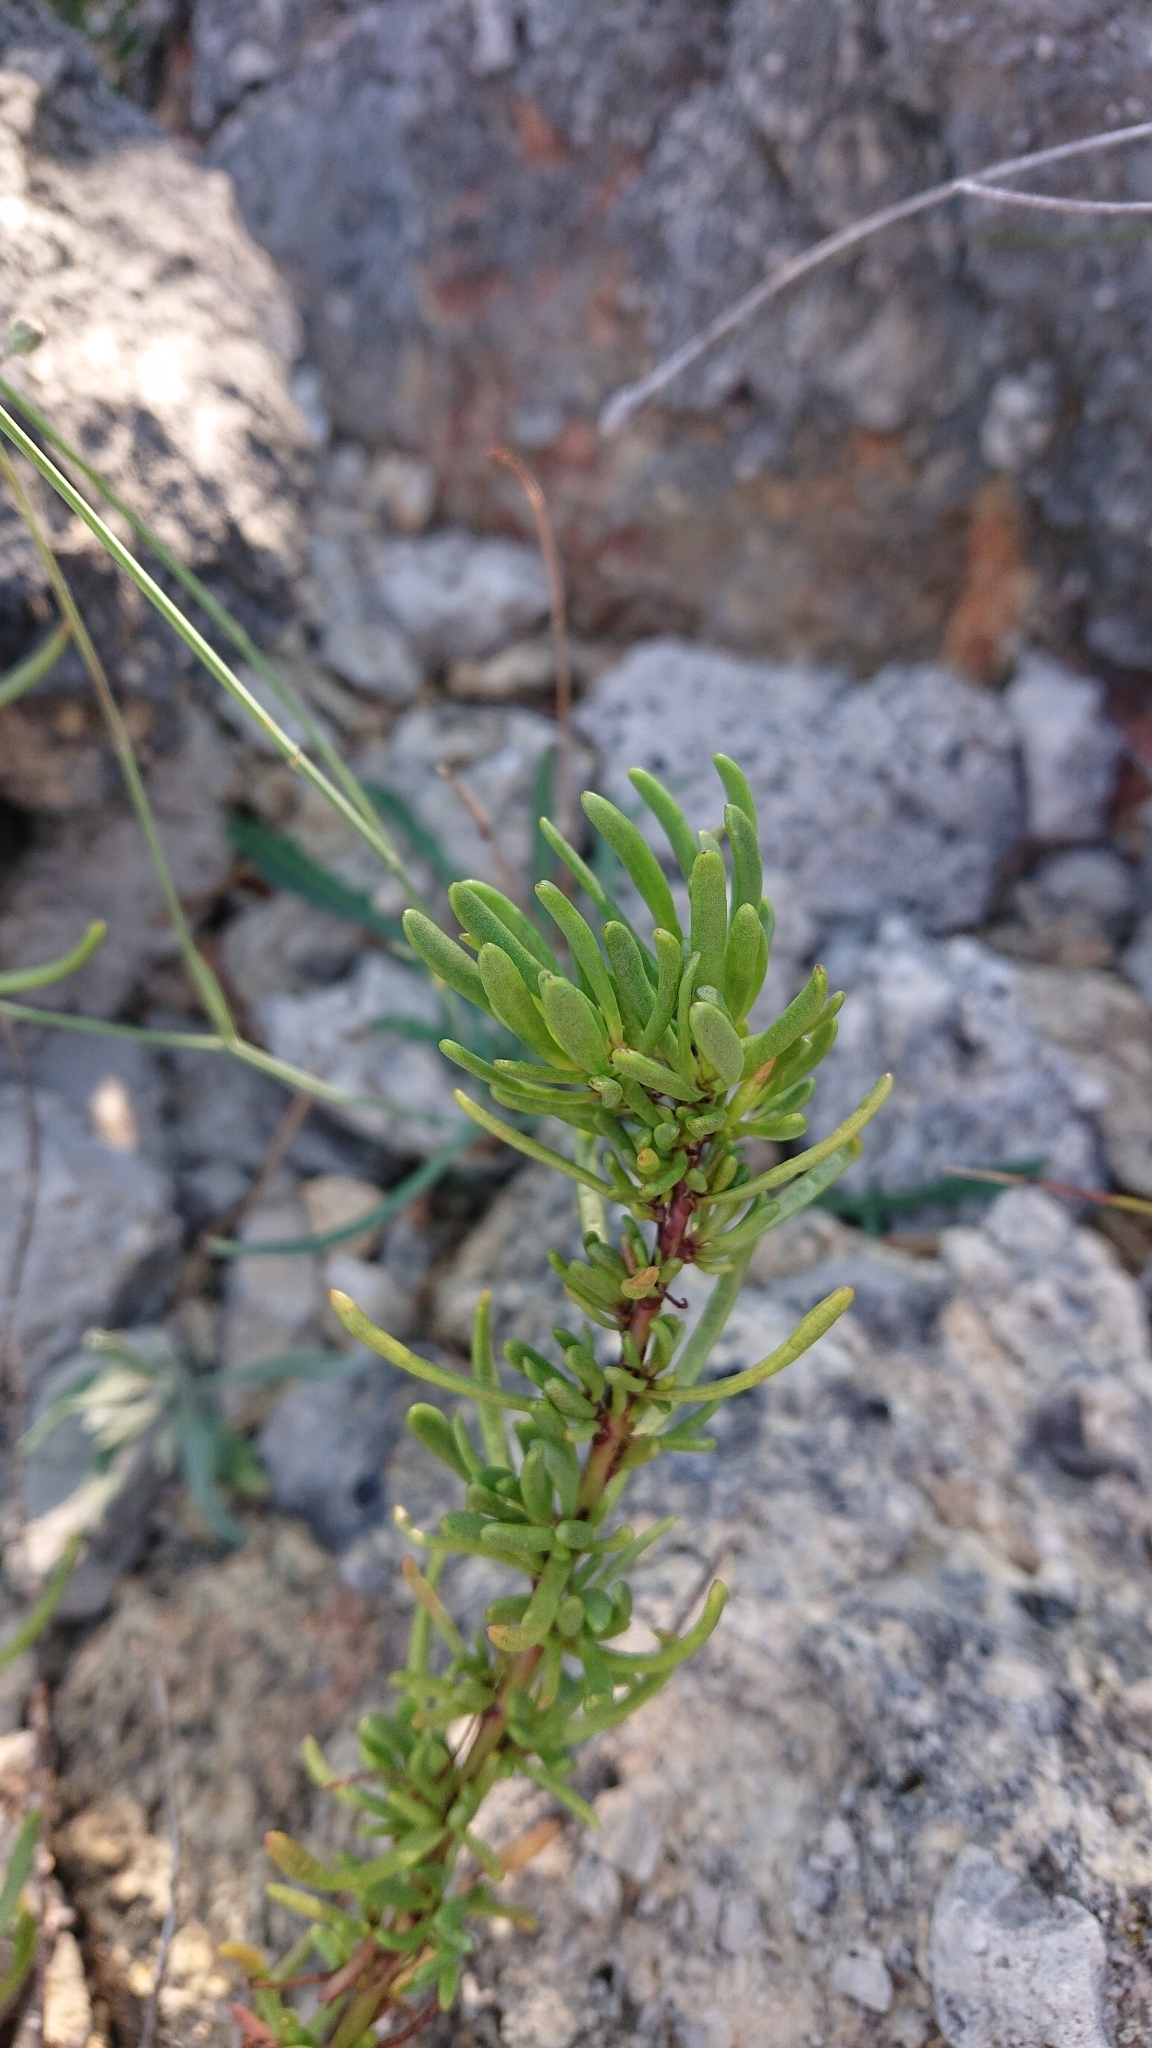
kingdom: Plantae
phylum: Tracheophyta
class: Magnoliopsida
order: Asterales
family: Asteraceae
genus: Limbarda
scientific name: Limbarda crithmoides
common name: Golden samphire
